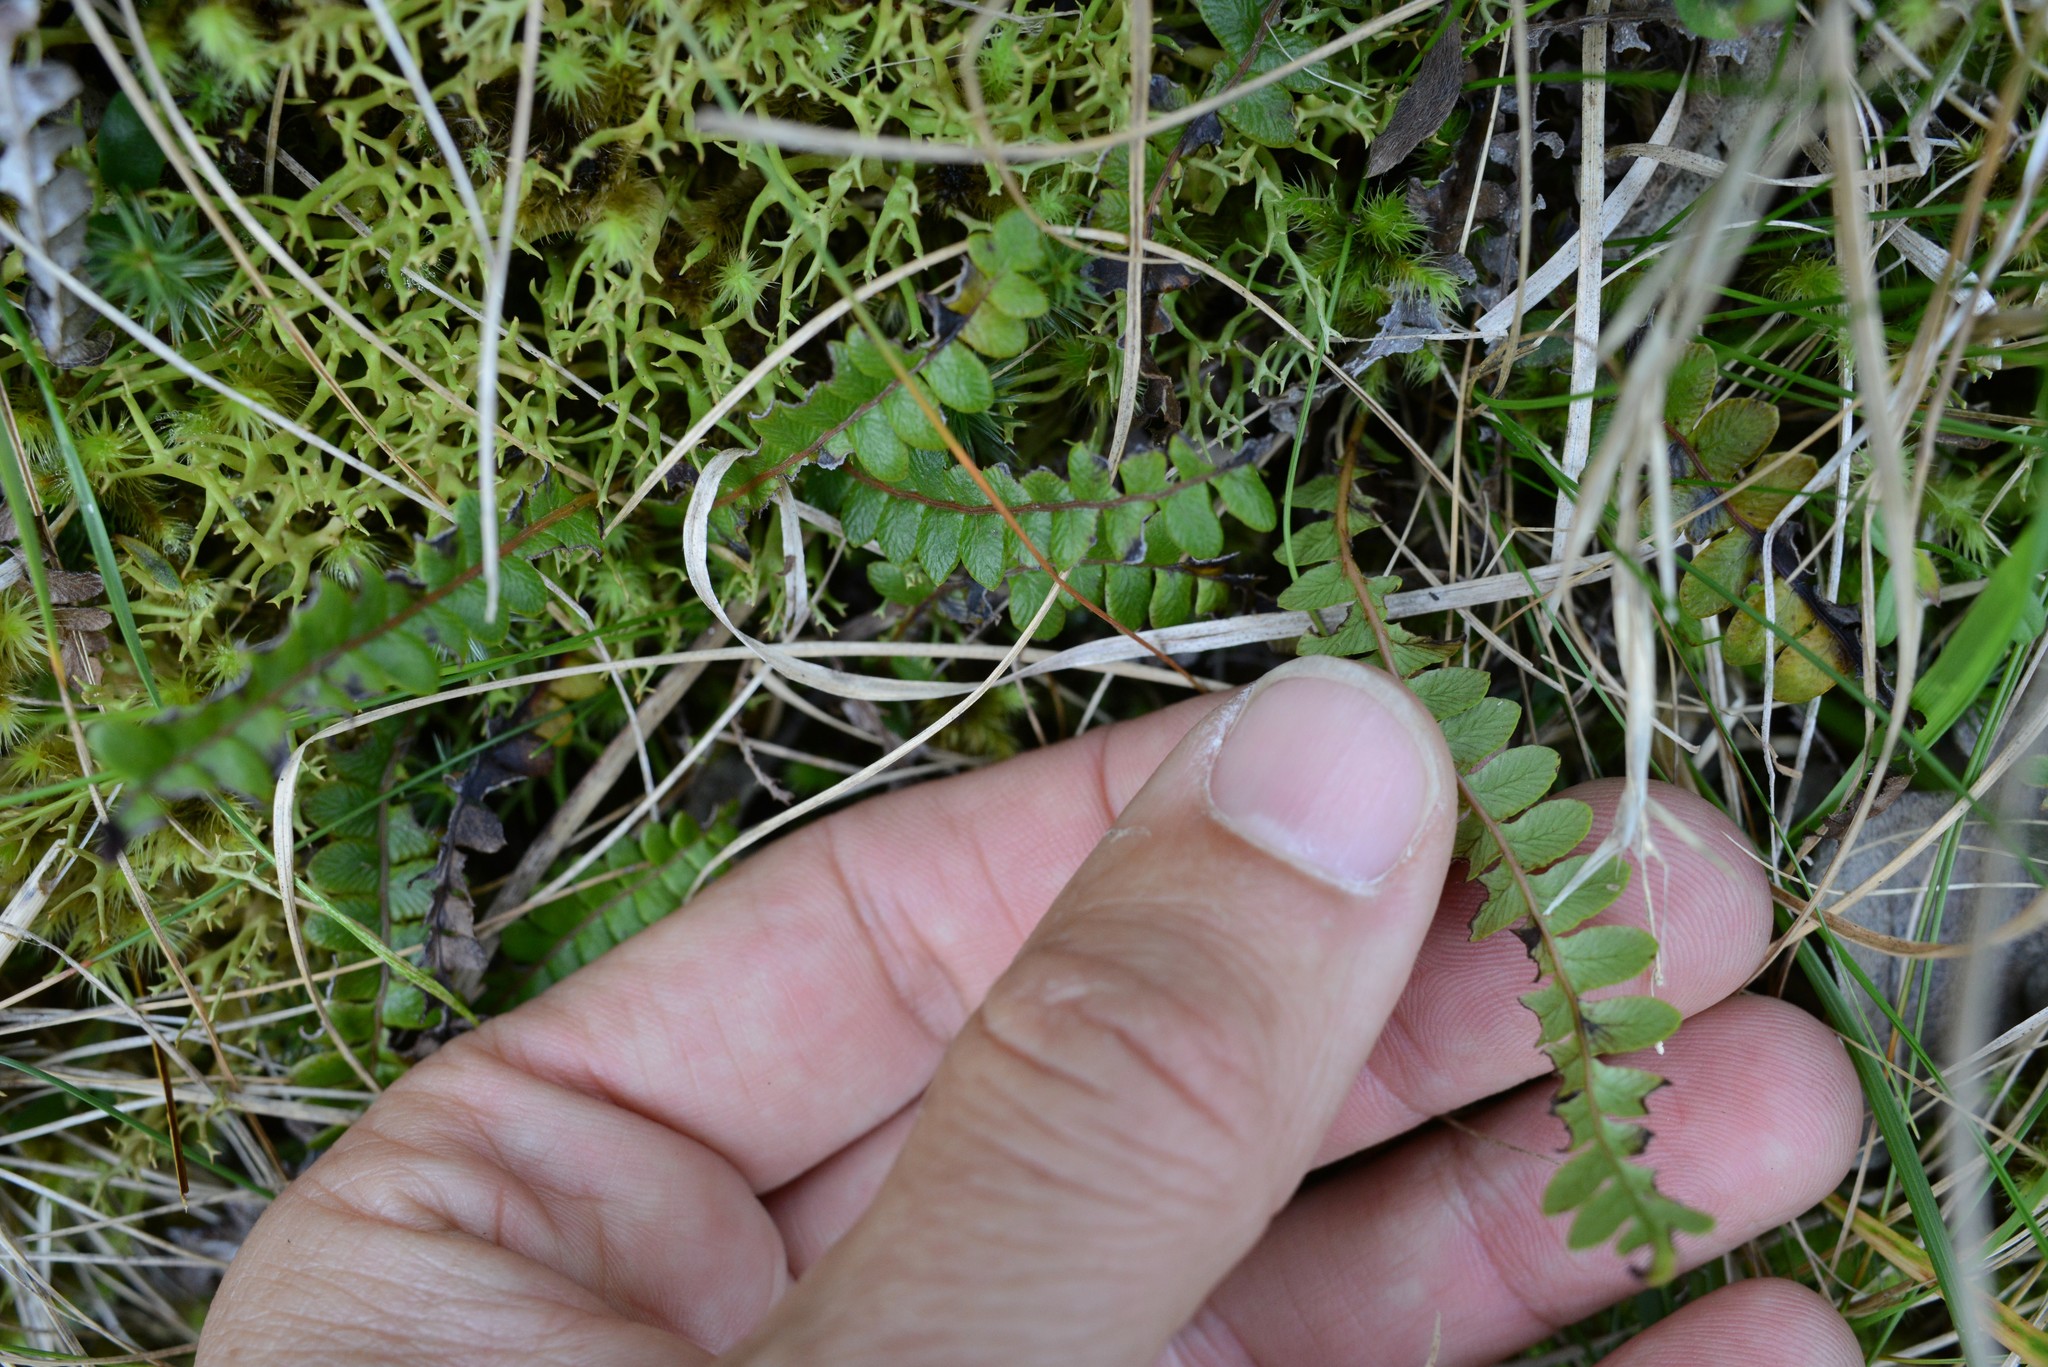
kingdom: Plantae
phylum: Tracheophyta
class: Polypodiopsida
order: Polypodiales
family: Blechnaceae
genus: Austroblechnum
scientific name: Austroblechnum penna-marina
